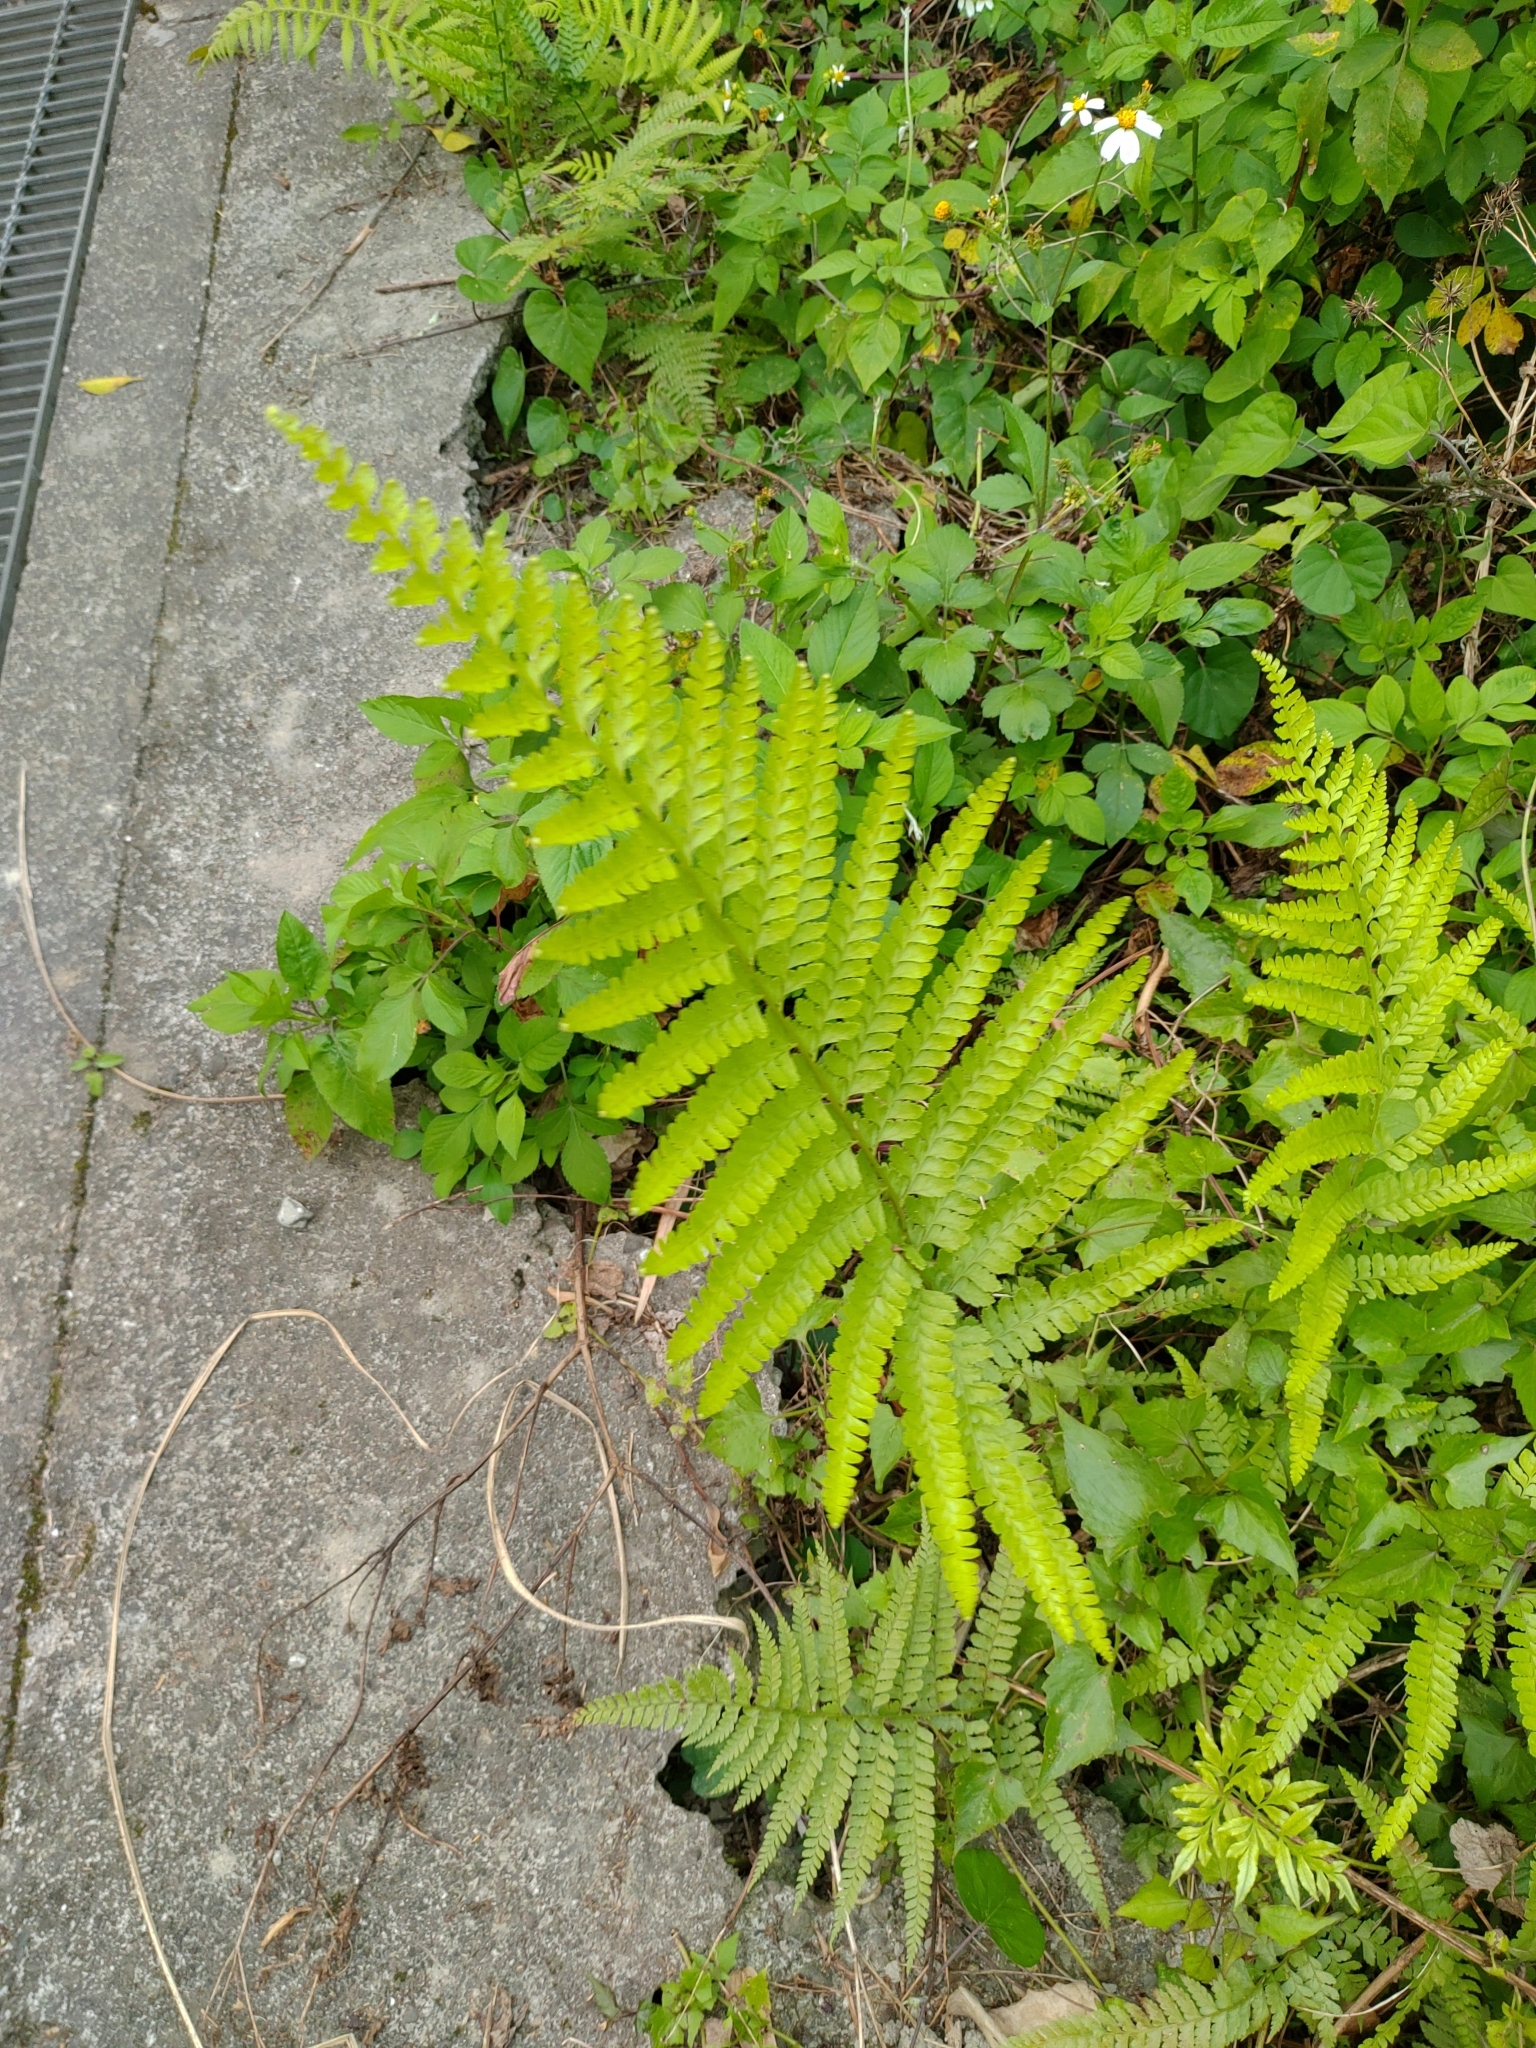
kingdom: Plantae
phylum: Tracheophyta
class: Polypodiopsida
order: Polypodiales
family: Dennstaedtiaceae
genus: Microlepia
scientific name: Microlepia strigosa
